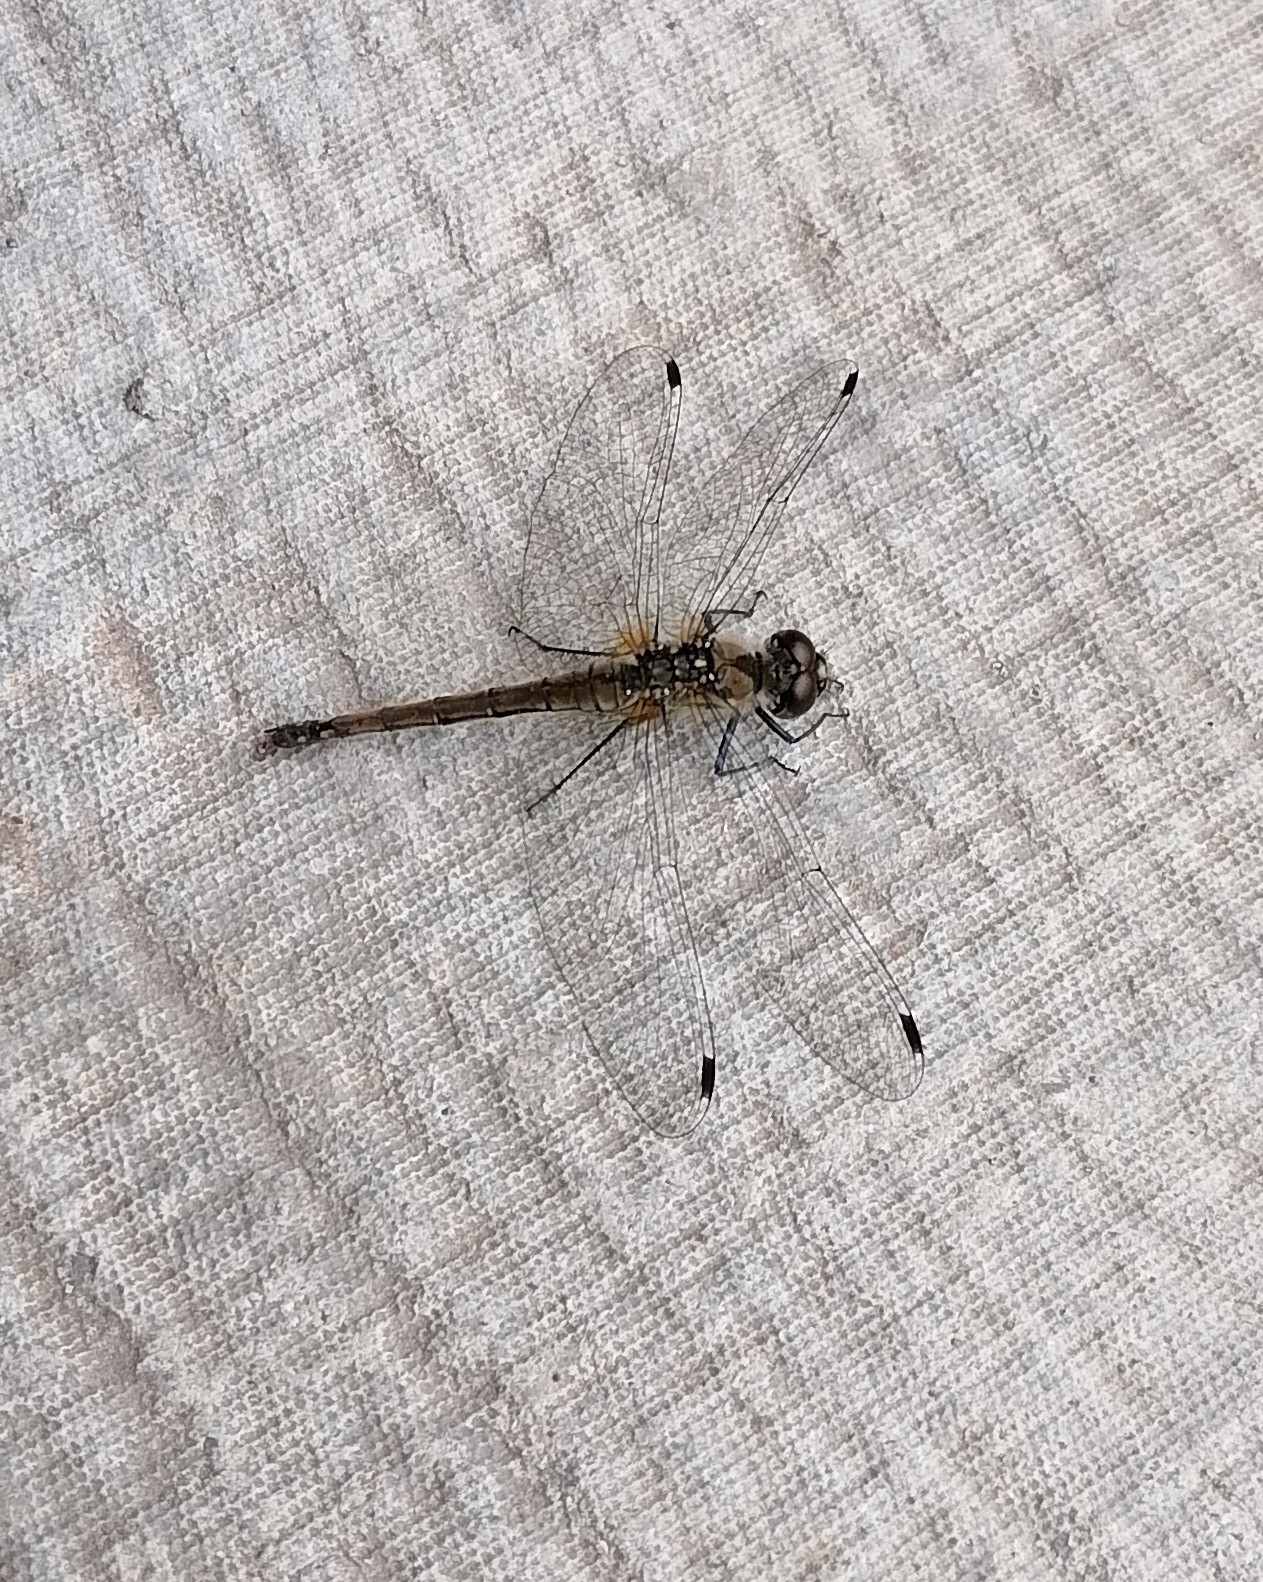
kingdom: Animalia
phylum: Arthropoda
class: Insecta
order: Odonata
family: Libellulidae
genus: Sympetrum
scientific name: Sympetrum danae
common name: Black darter
